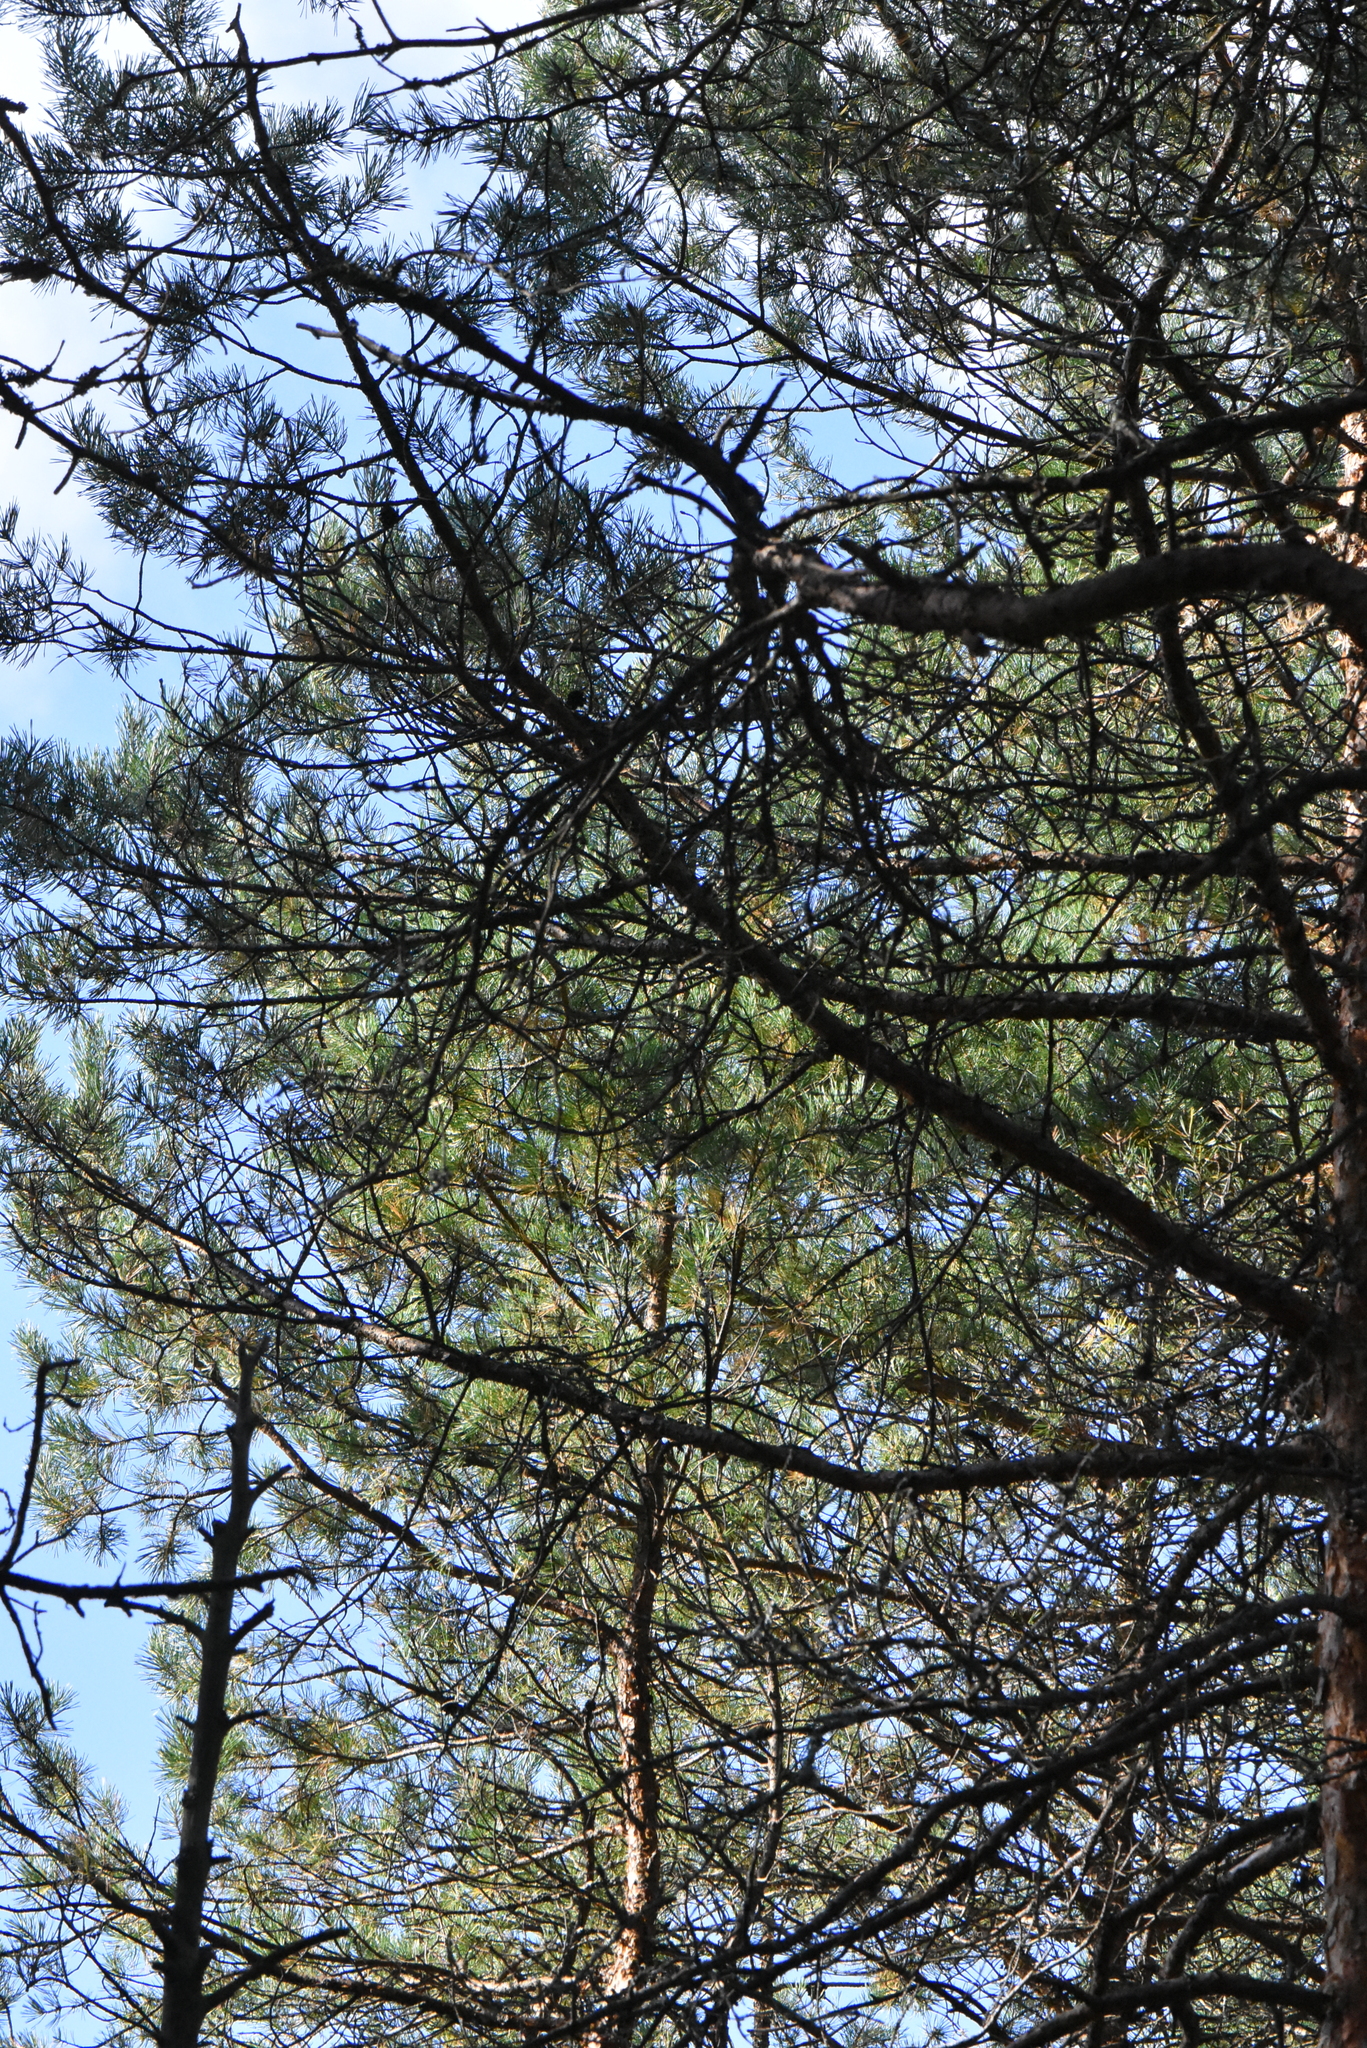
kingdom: Plantae
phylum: Tracheophyta
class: Pinopsida
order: Pinales
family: Pinaceae
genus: Pinus
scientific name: Pinus sylvestris
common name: Scots pine
